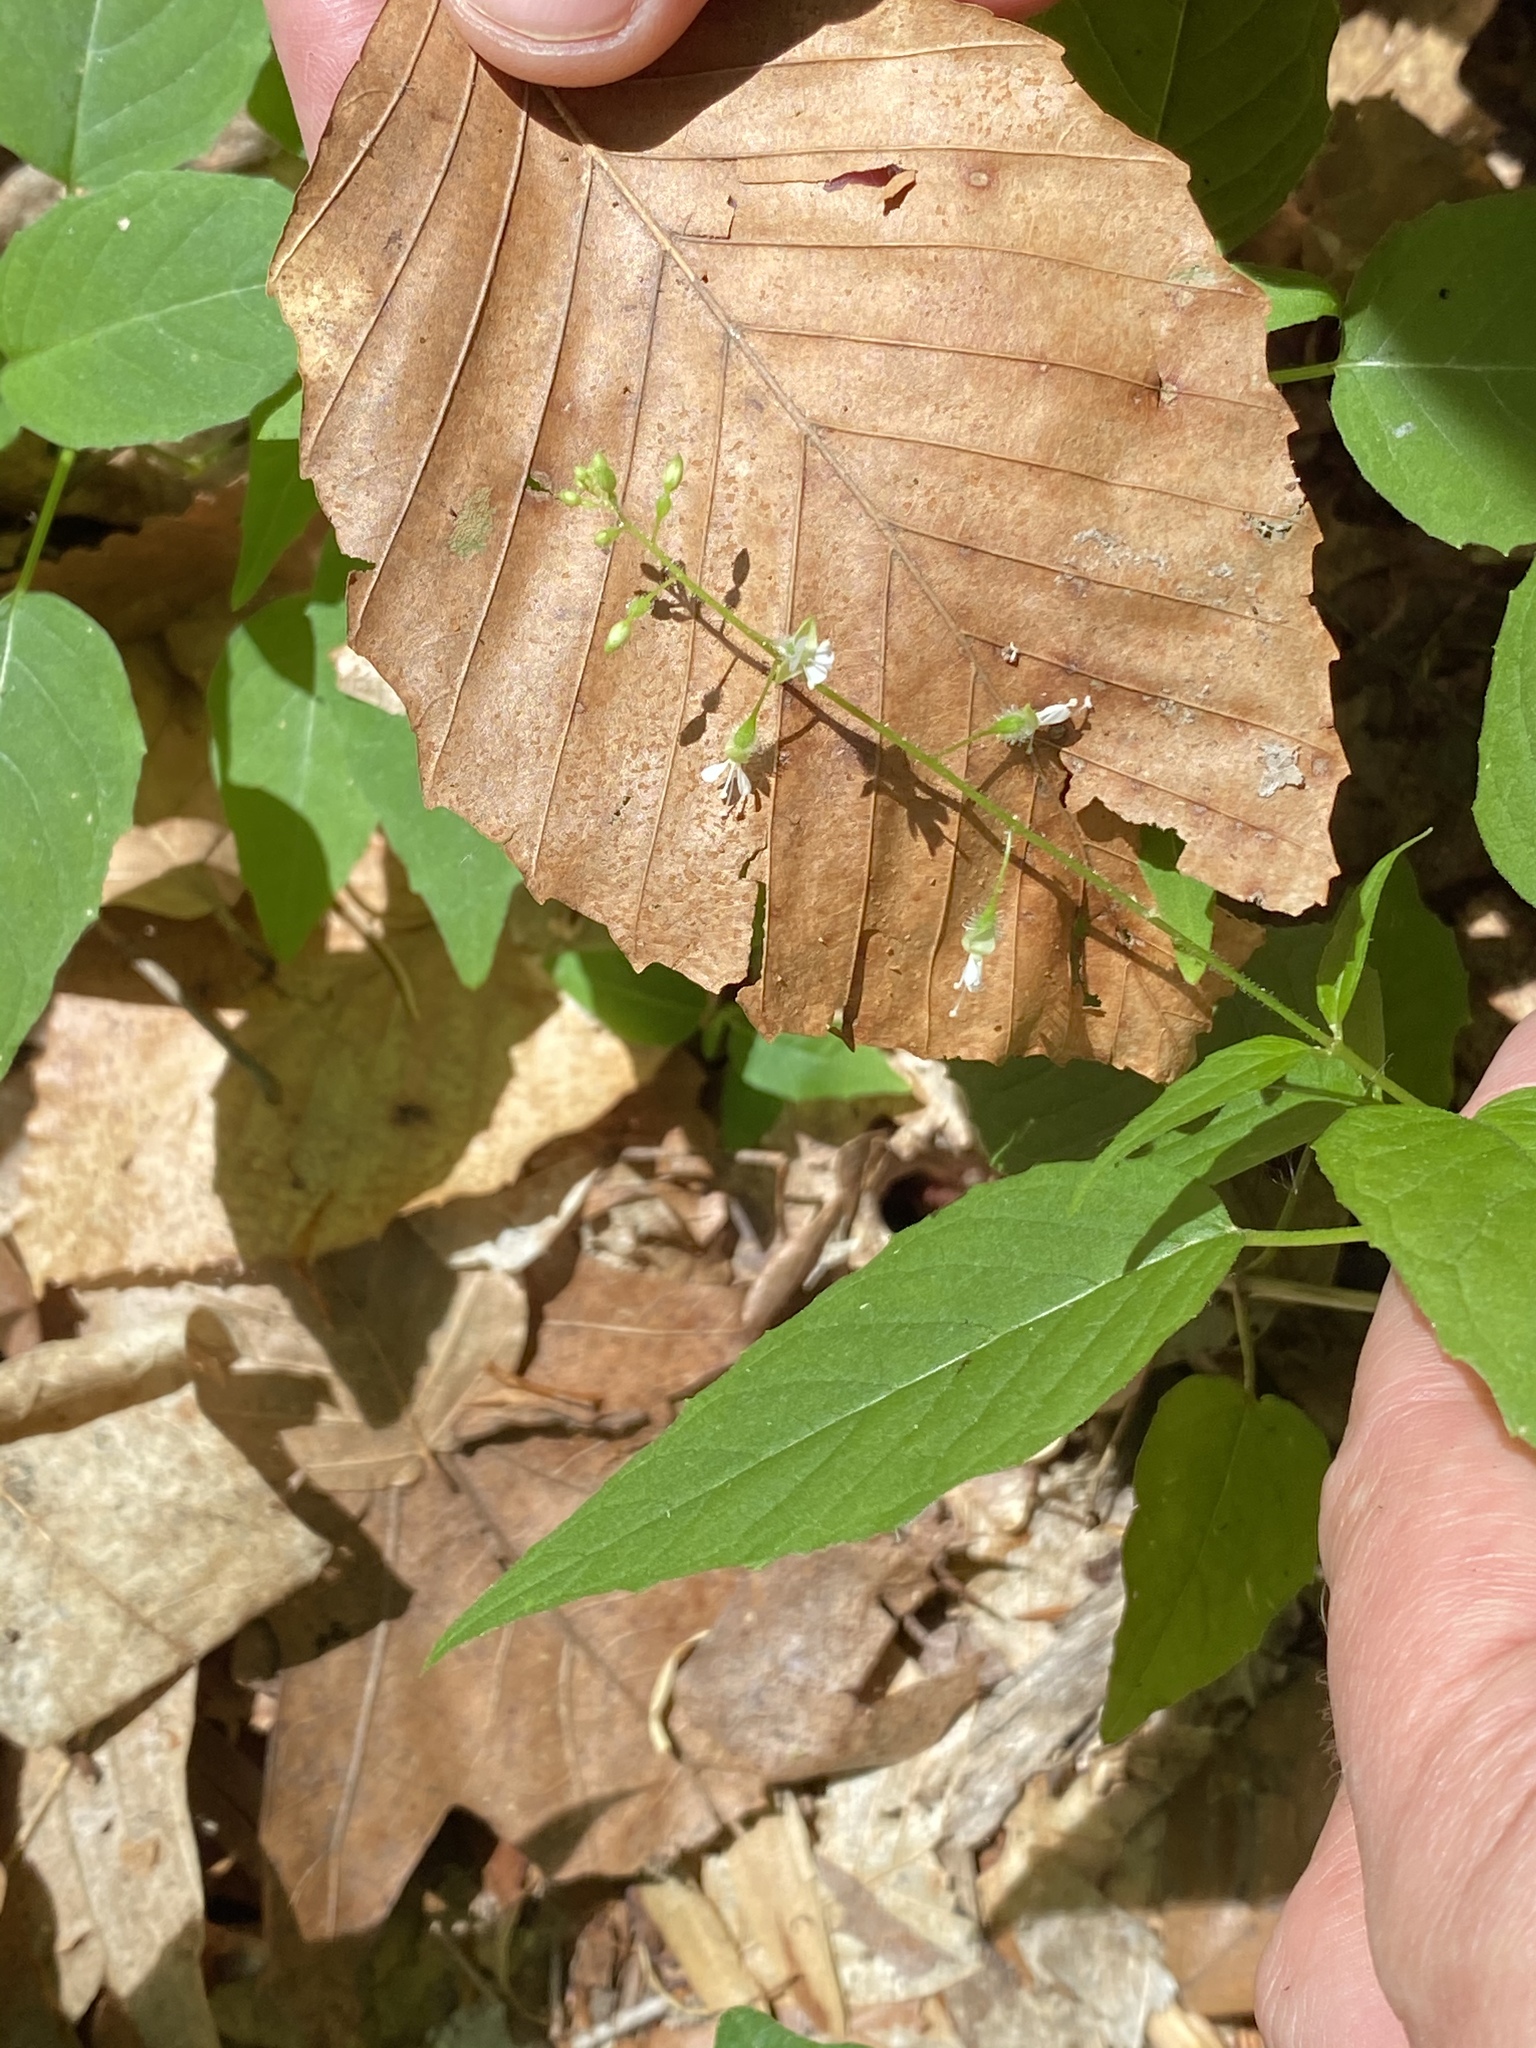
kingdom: Plantae
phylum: Tracheophyta
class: Magnoliopsida
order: Myrtales
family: Onagraceae
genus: Circaea
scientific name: Circaea canadensis
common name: Broad-leaved enchanter's nightshade
